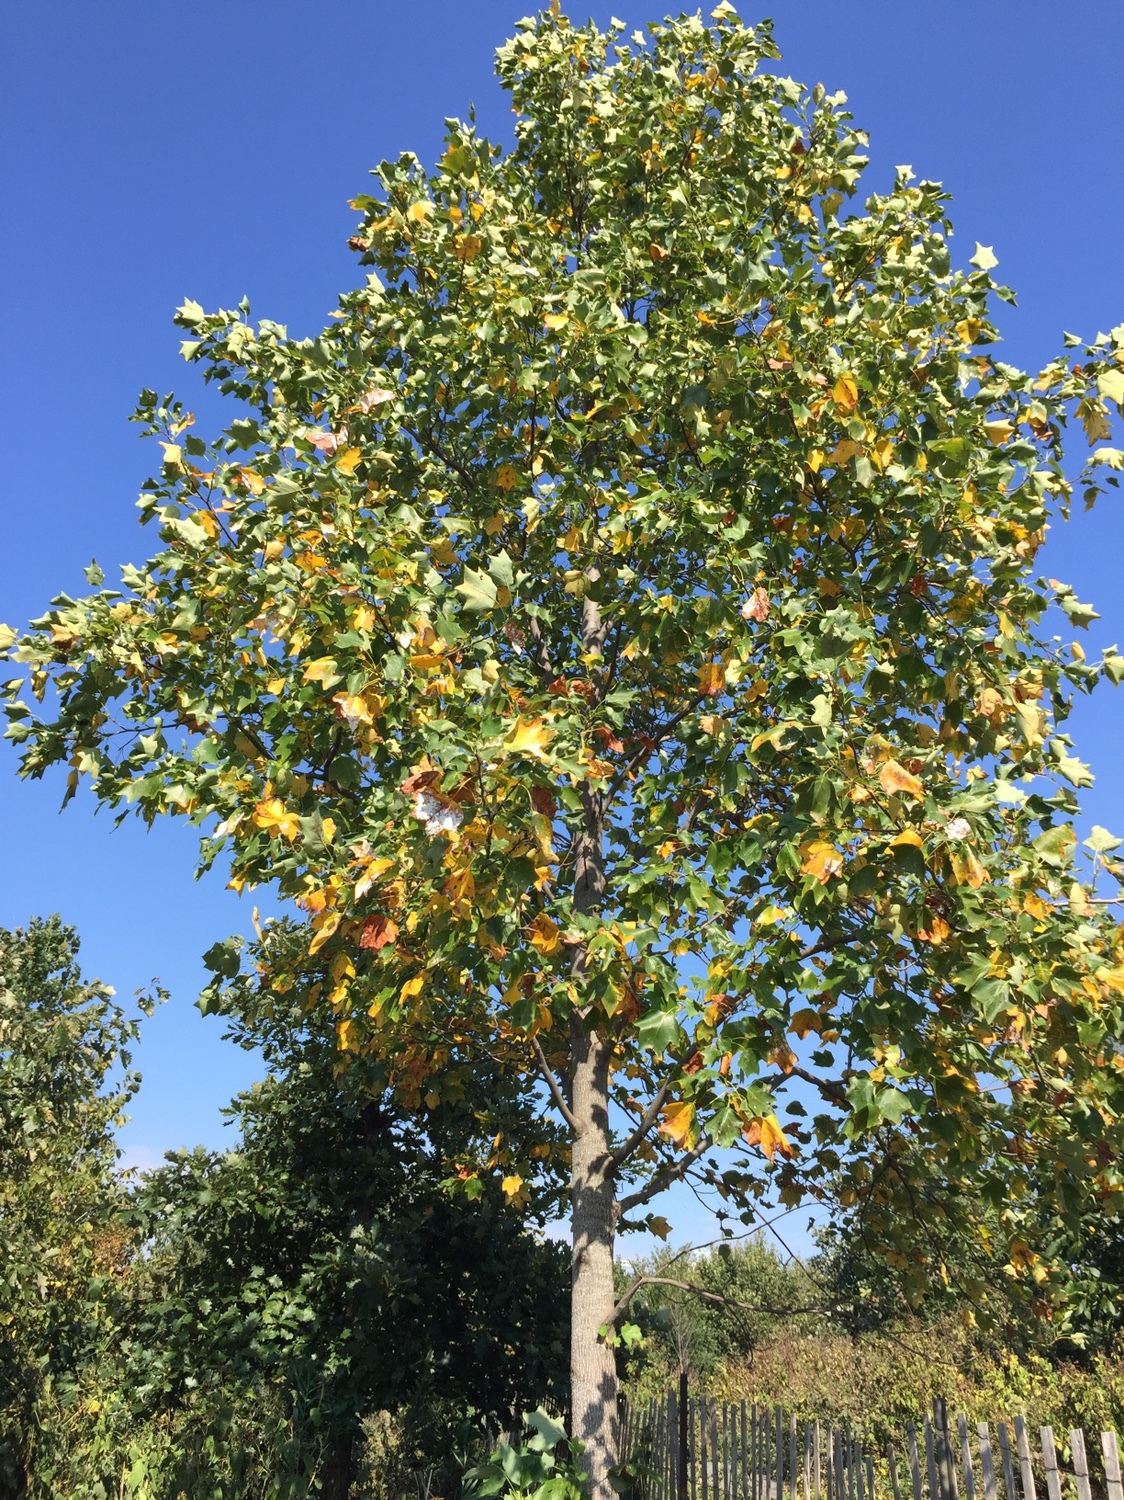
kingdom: Plantae
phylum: Tracheophyta
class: Magnoliopsida
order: Magnoliales
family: Magnoliaceae
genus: Liriodendron
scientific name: Liriodendron tulipifera
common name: Tulip tree
